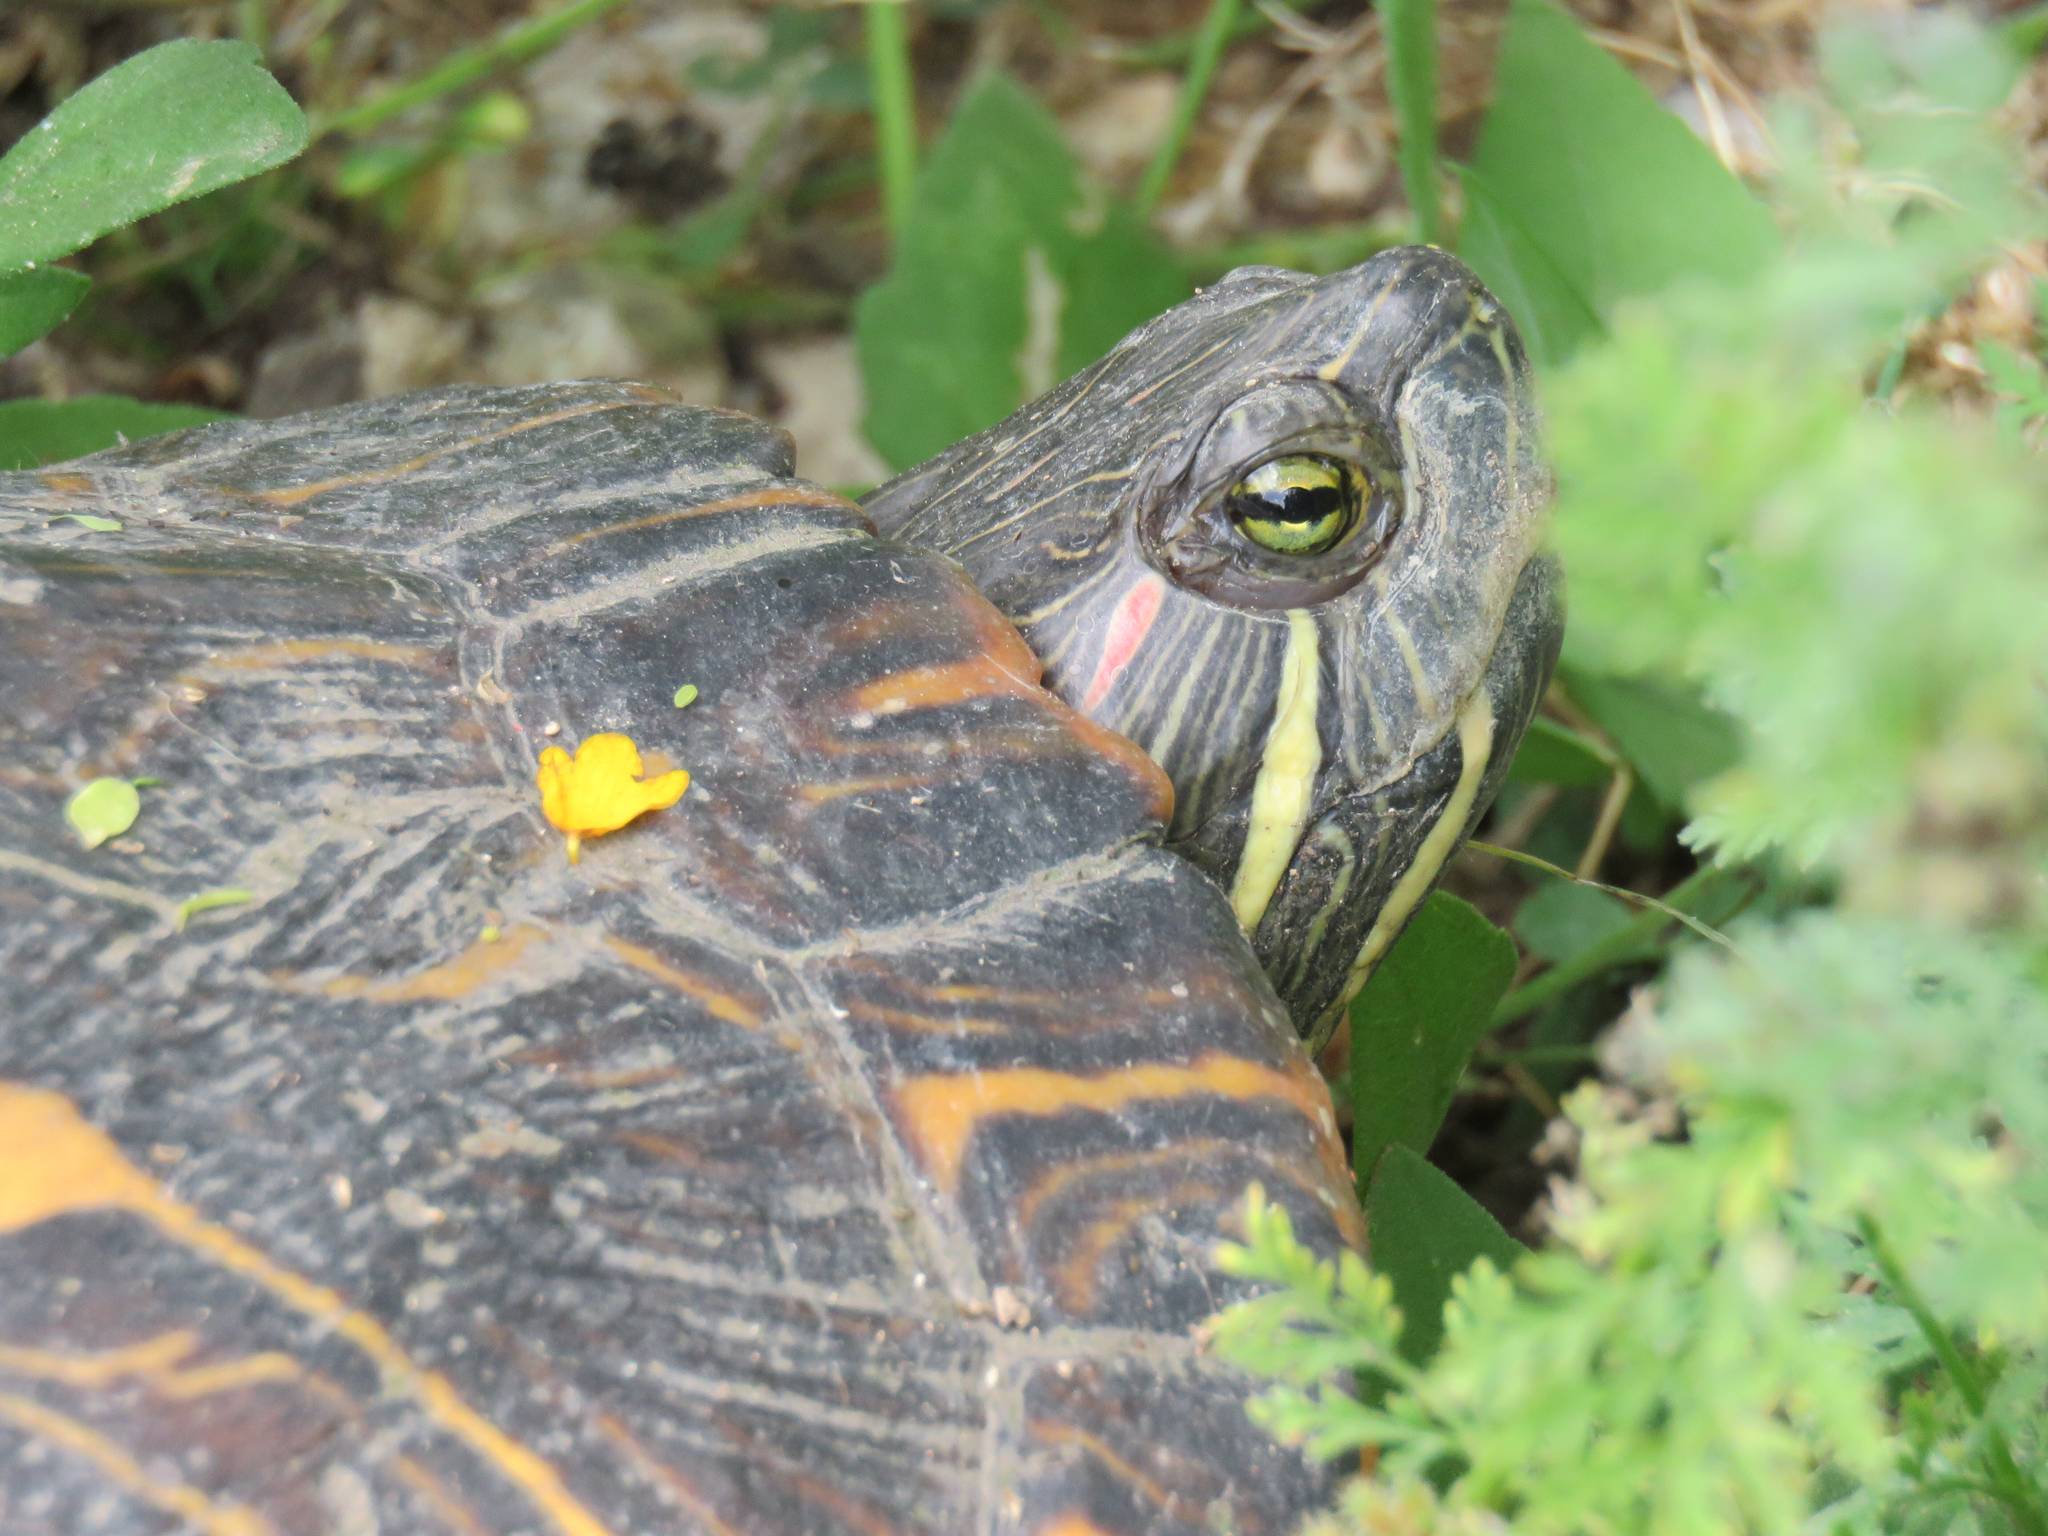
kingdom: Animalia
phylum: Chordata
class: Testudines
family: Emydidae
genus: Trachemys
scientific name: Trachemys scripta
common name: Slider
